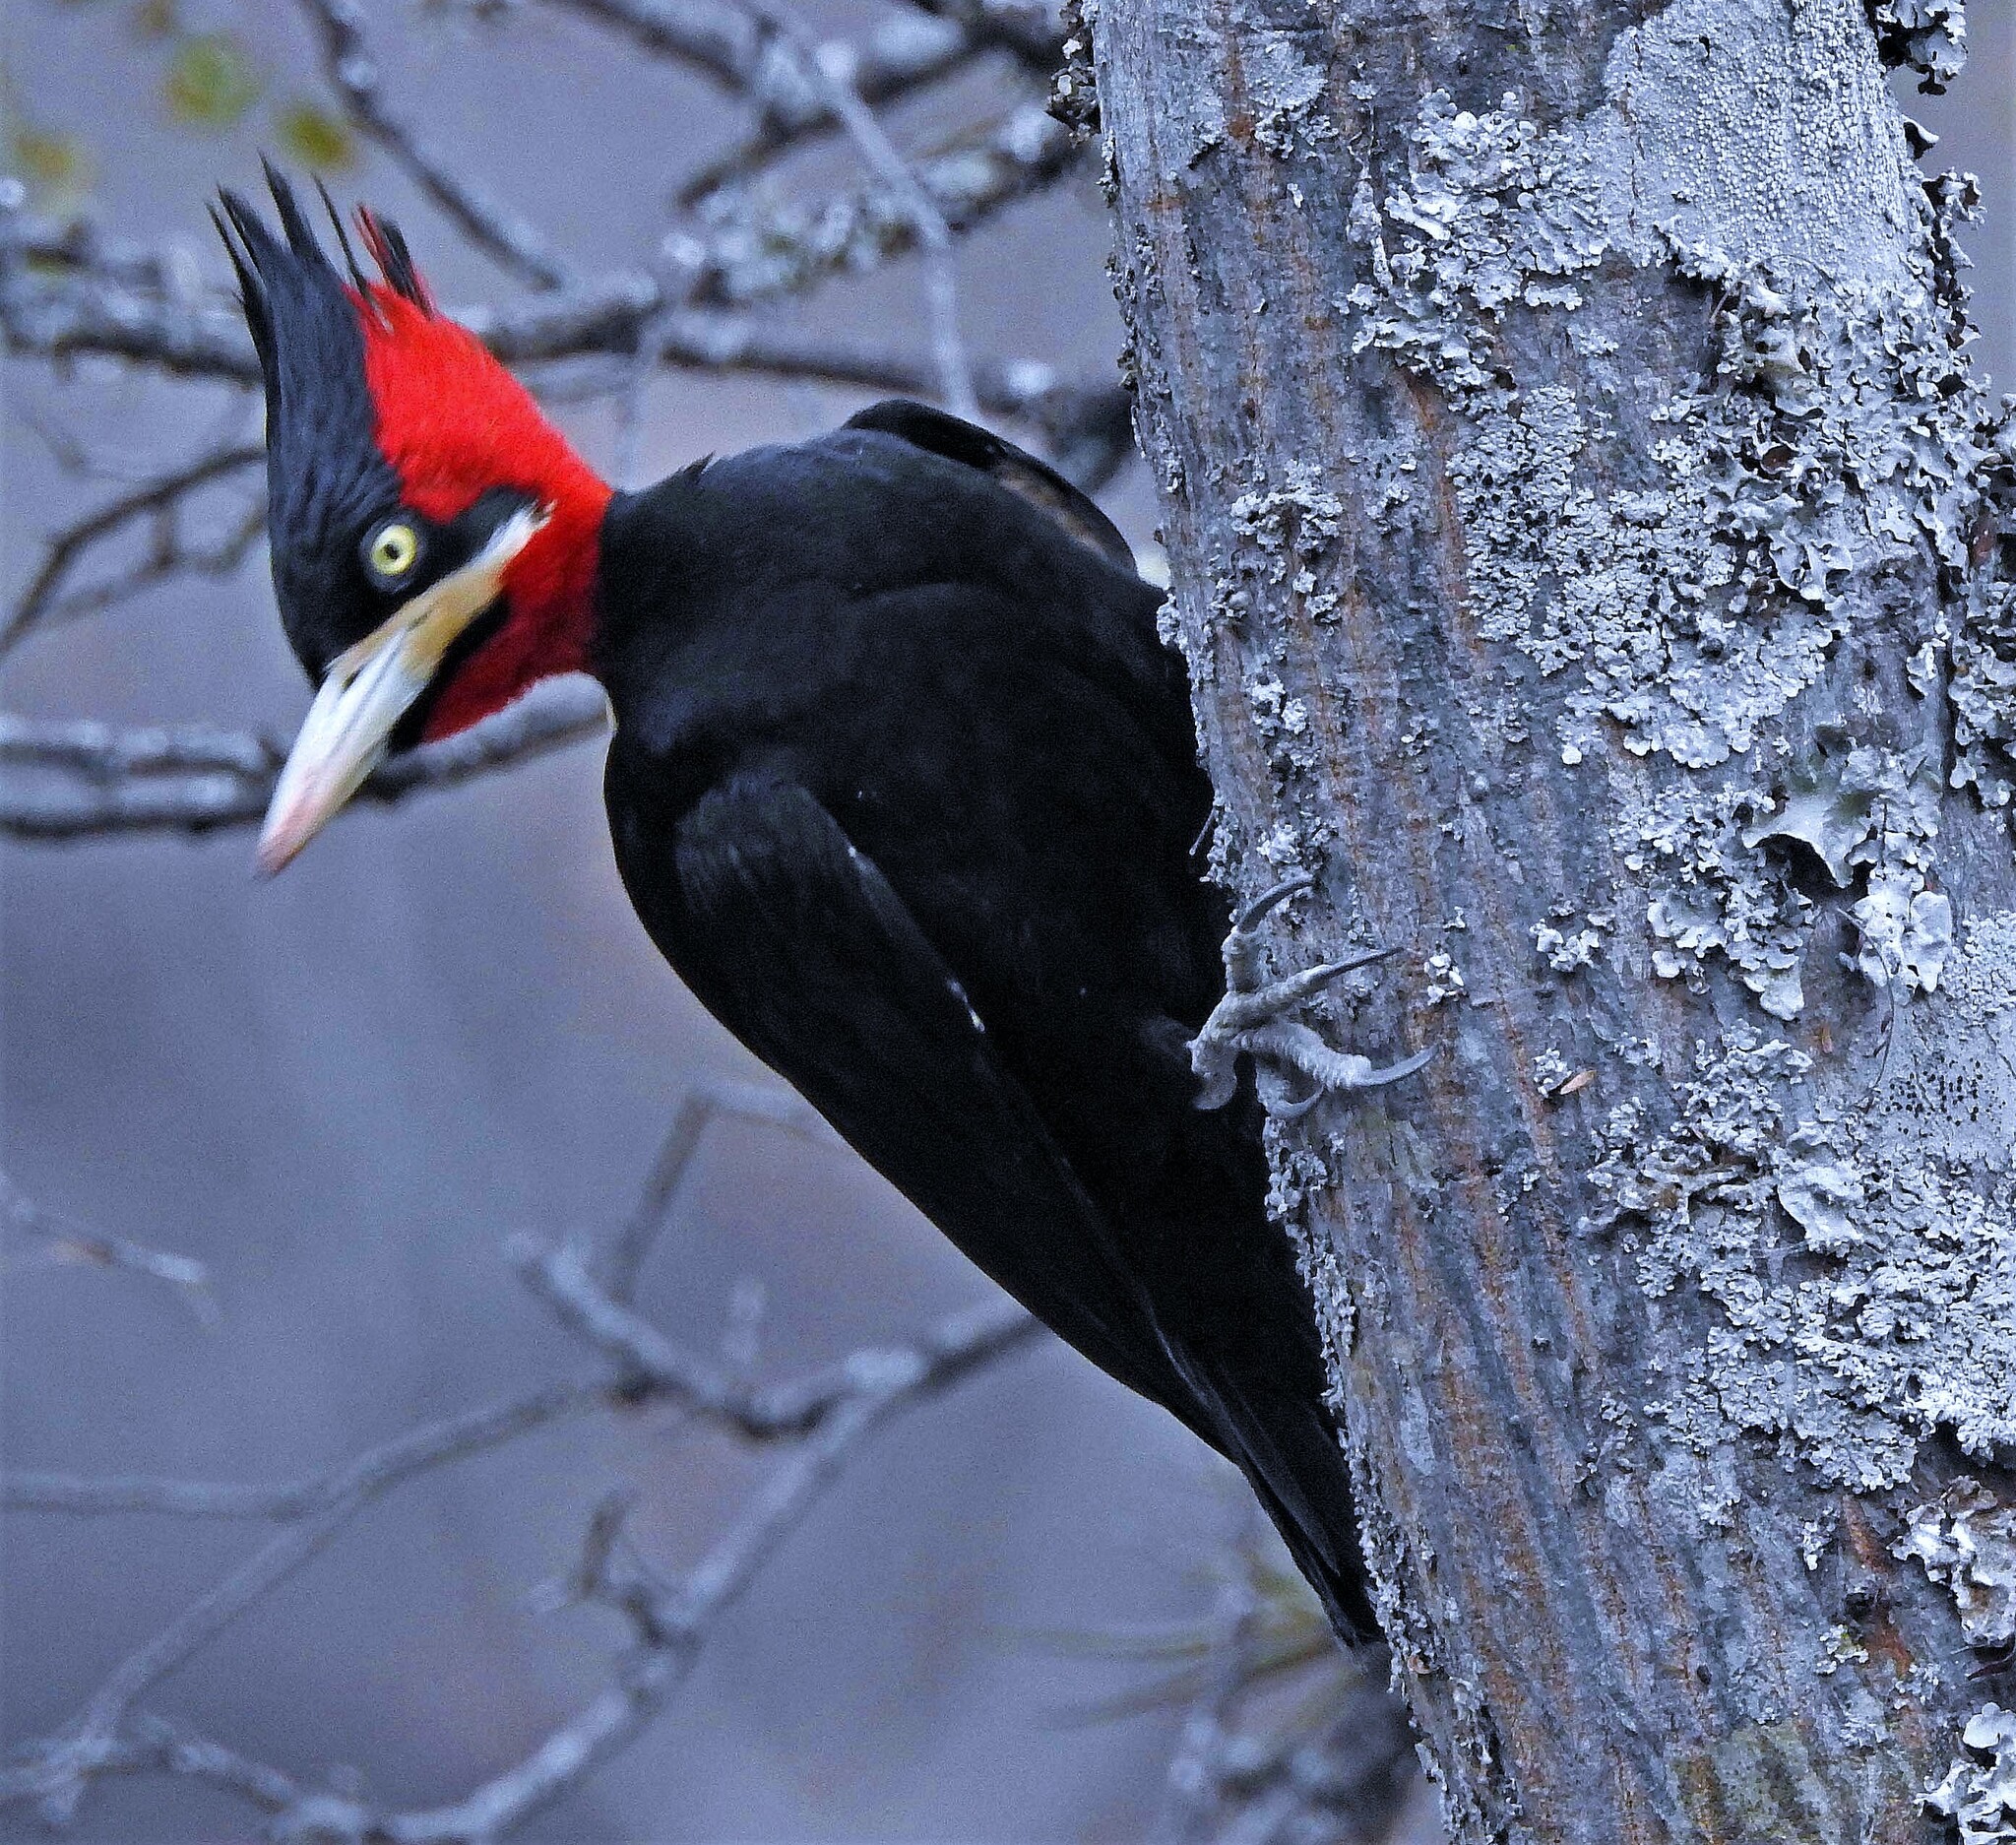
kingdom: Animalia
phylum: Chordata
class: Aves
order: Piciformes
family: Picidae
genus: Campephilus
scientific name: Campephilus leucopogon
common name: Cream-backed woodpecker
